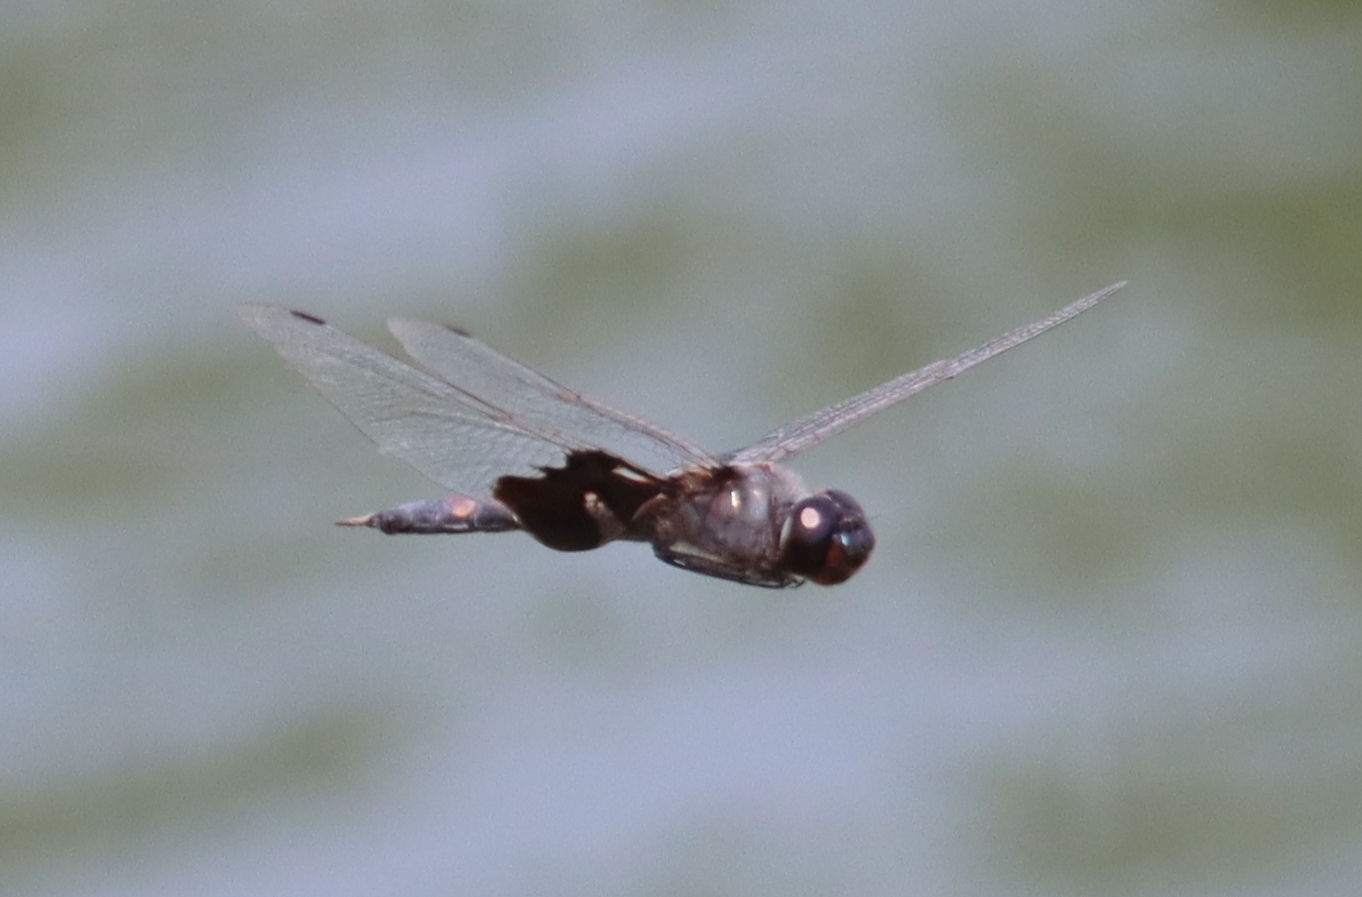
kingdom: Animalia
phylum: Arthropoda
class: Insecta
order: Odonata
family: Libellulidae
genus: Tramea
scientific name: Tramea lacerata
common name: Black saddlebags
